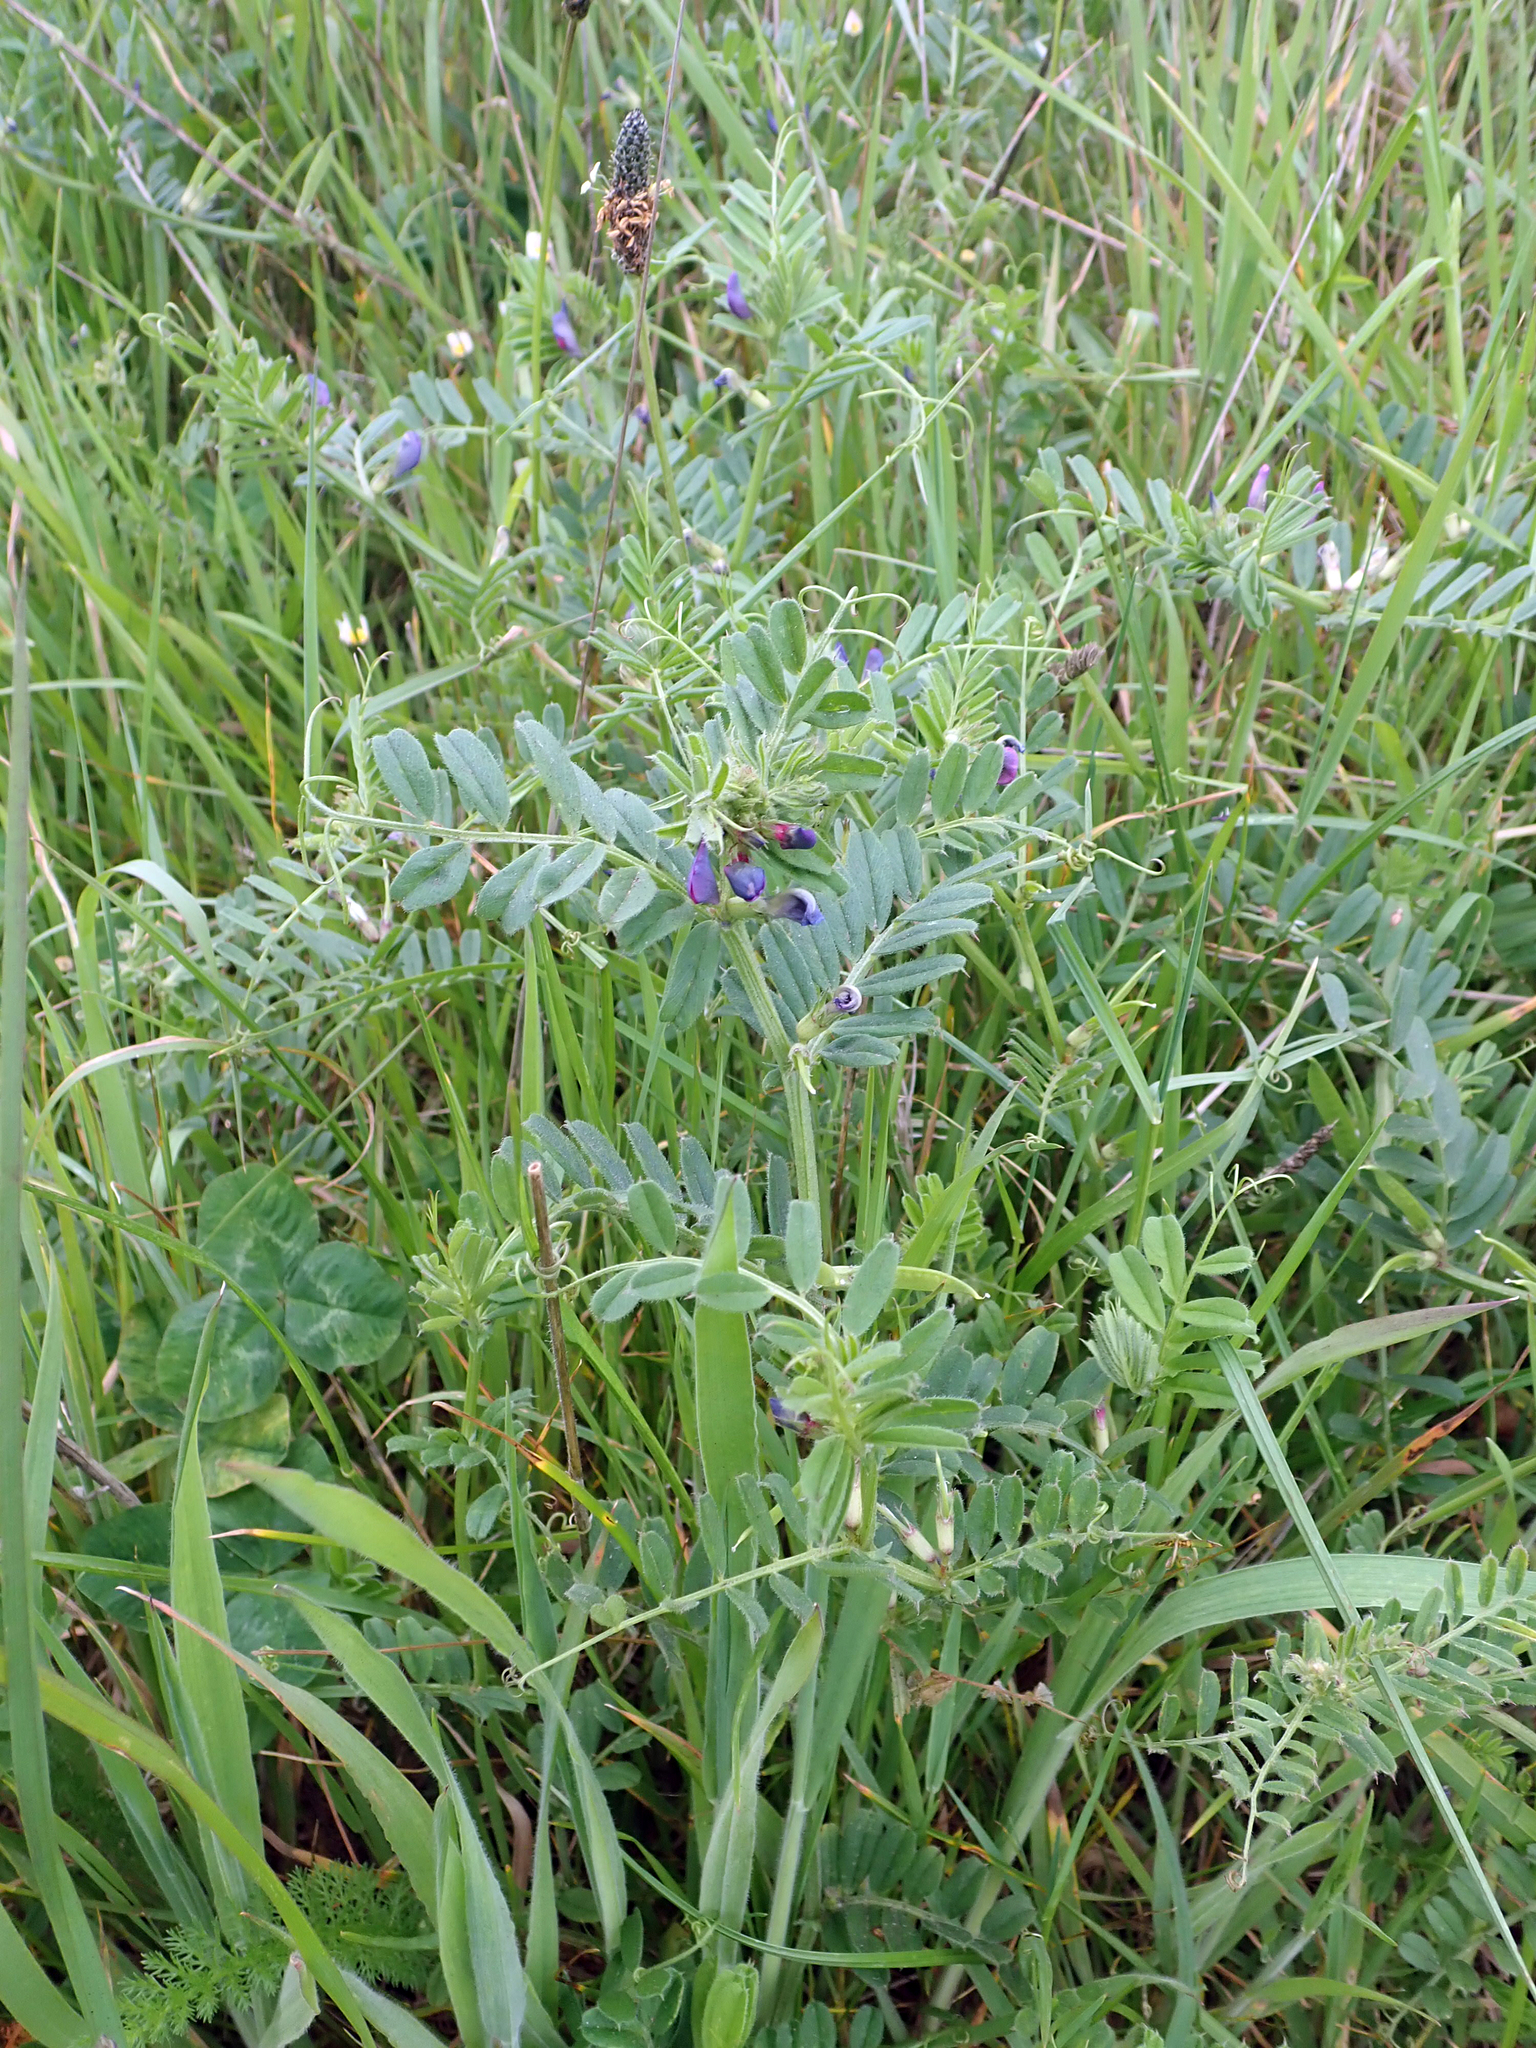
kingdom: Plantae
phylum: Tracheophyta
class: Magnoliopsida
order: Fabales
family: Fabaceae
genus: Vicia
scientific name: Vicia sativa
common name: Garden vetch
